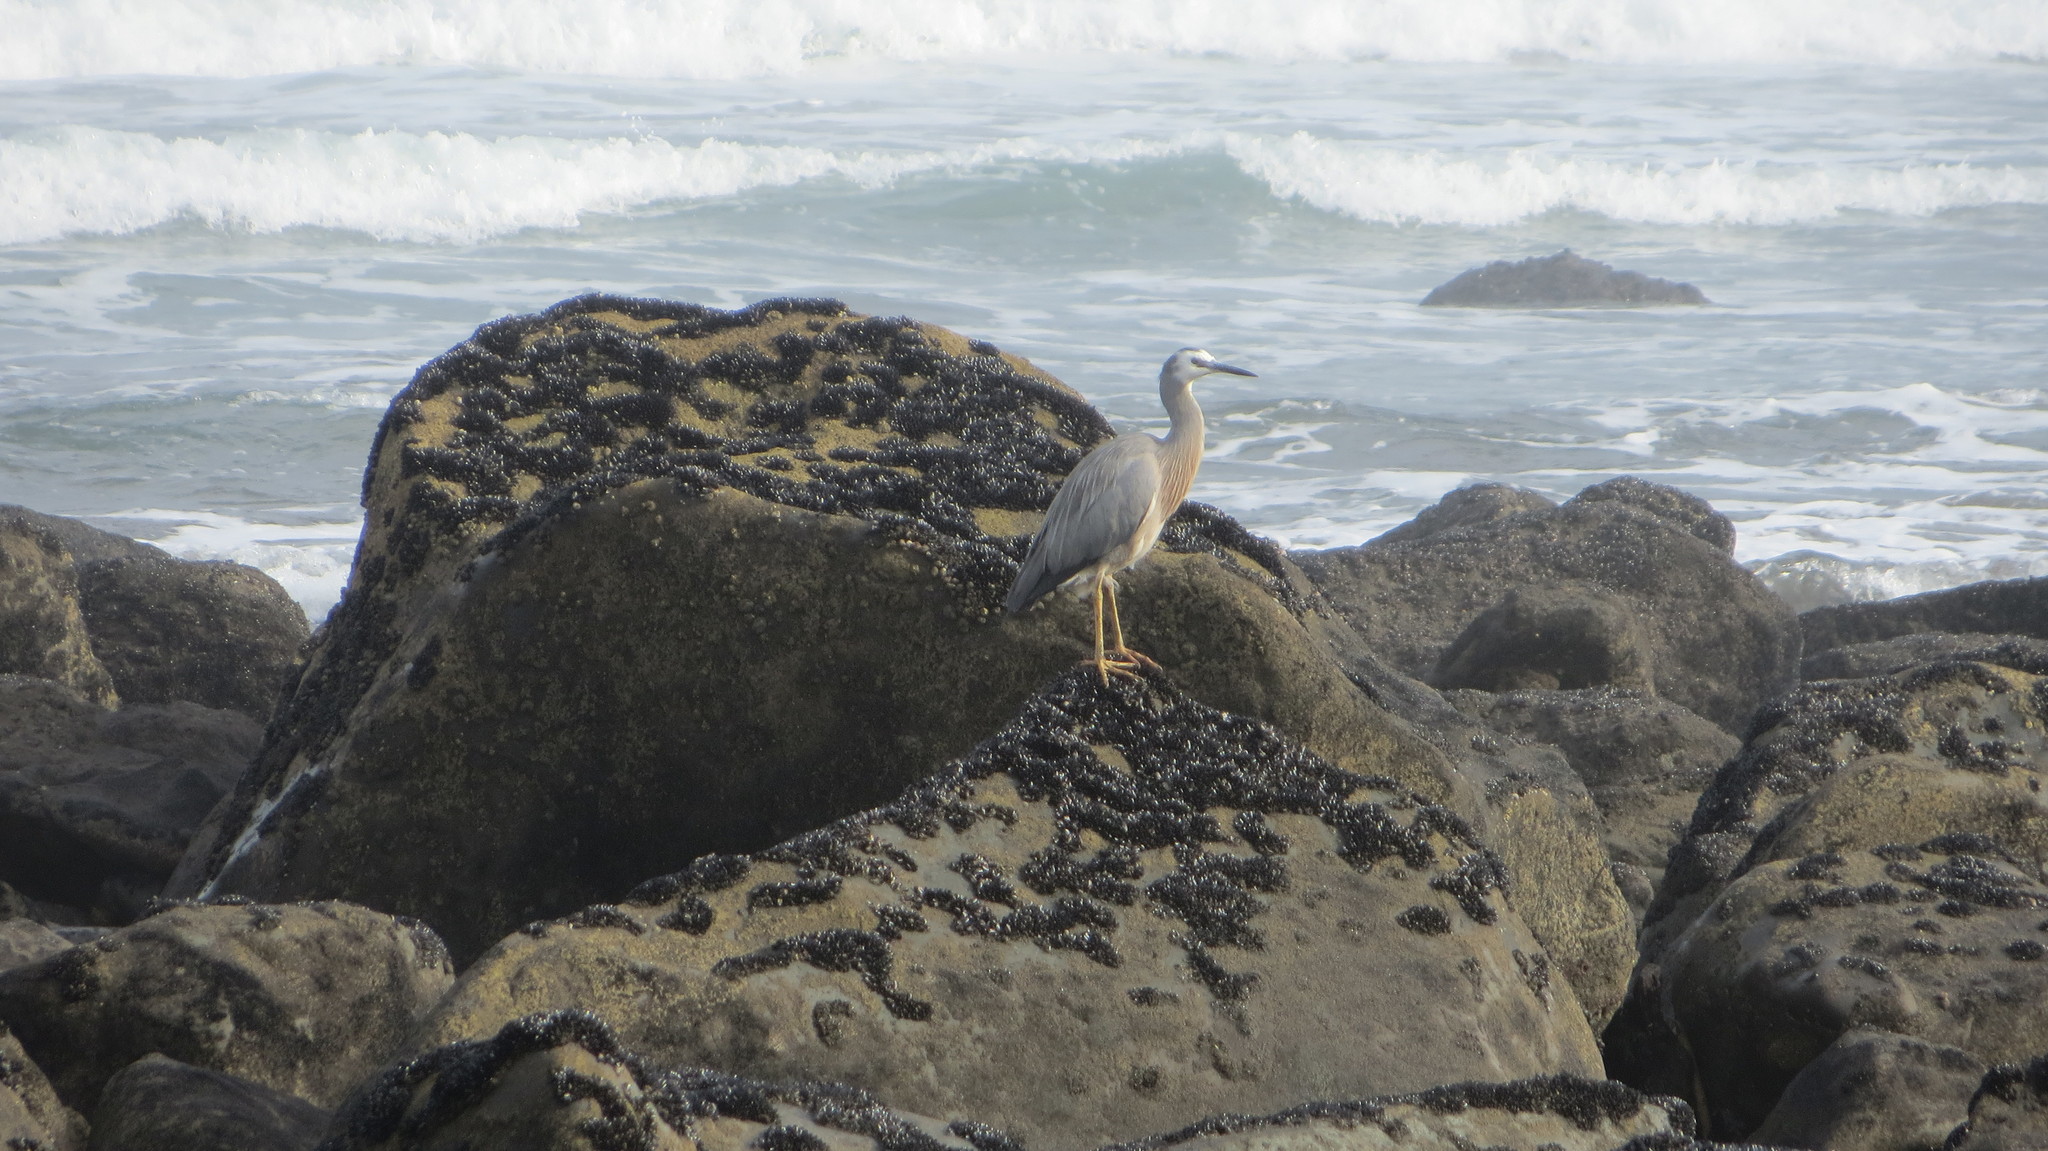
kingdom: Animalia
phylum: Chordata
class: Aves
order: Pelecaniformes
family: Ardeidae
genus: Egretta
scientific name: Egretta novaehollandiae
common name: White-faced heron
